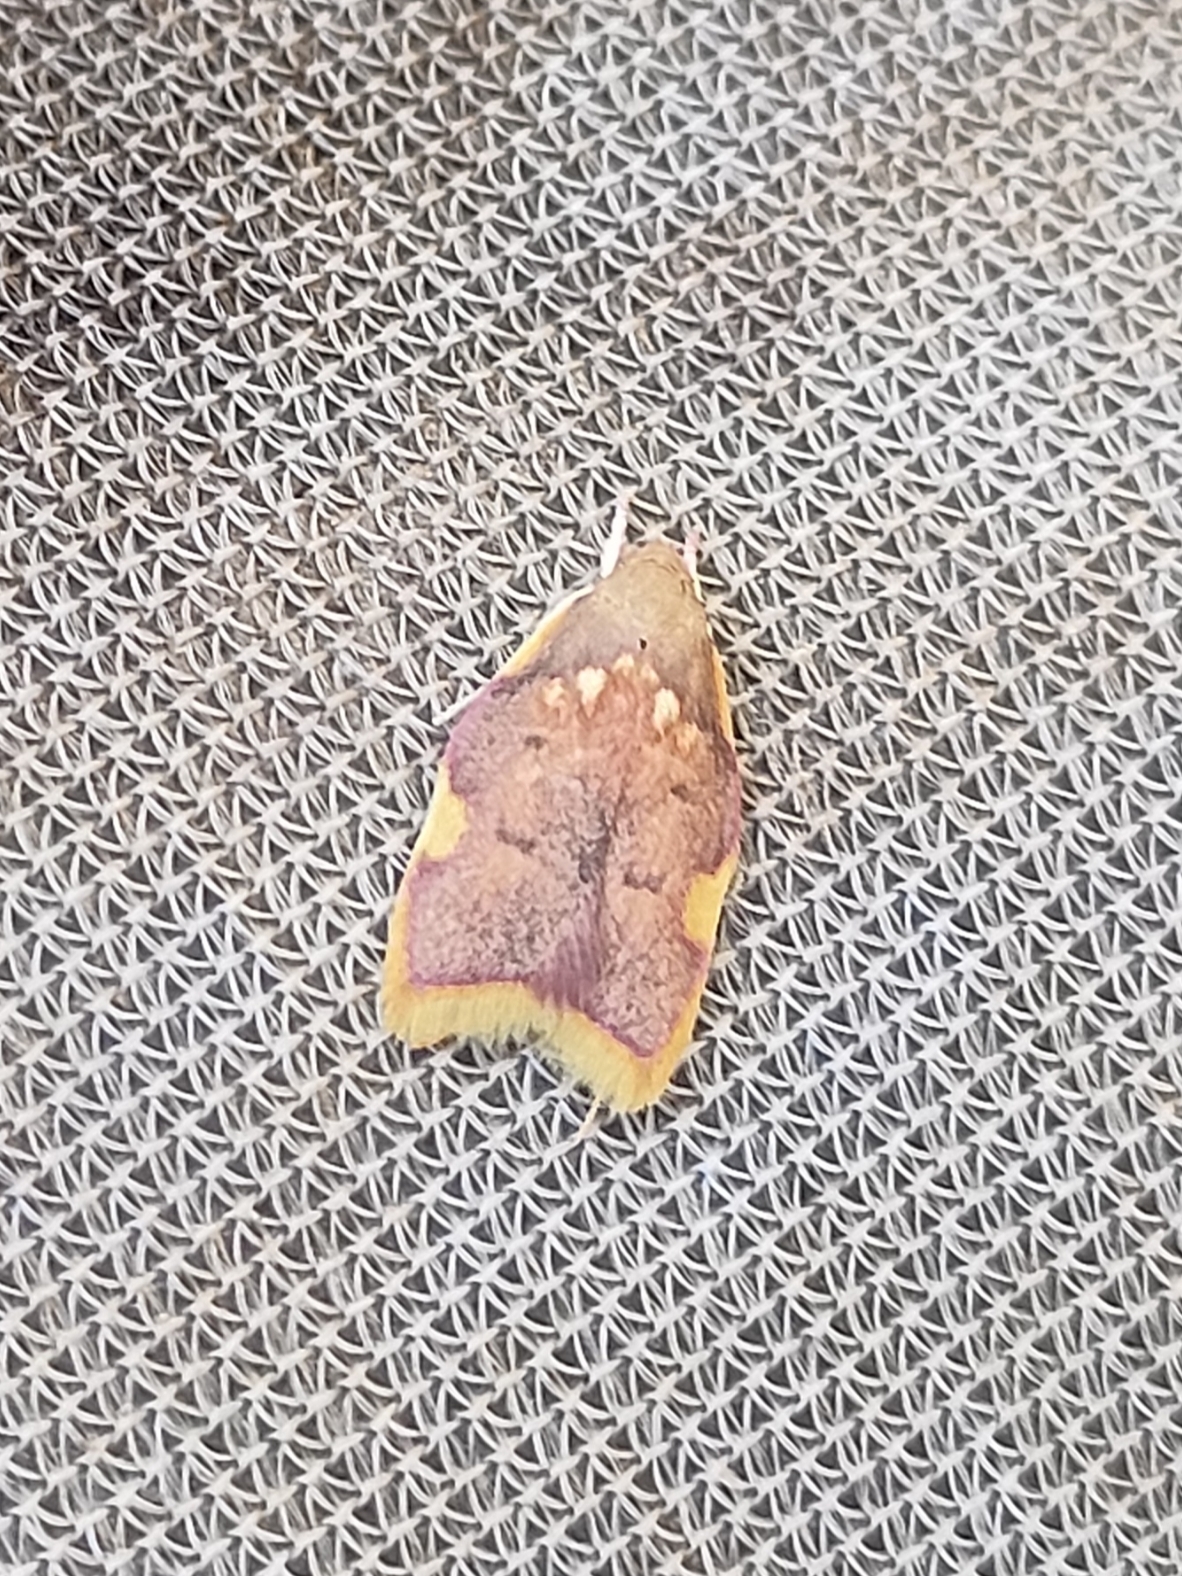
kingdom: Animalia
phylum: Arthropoda
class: Insecta
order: Lepidoptera
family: Peleopodidae
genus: Carcina
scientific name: Carcina quercana
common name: Moth
